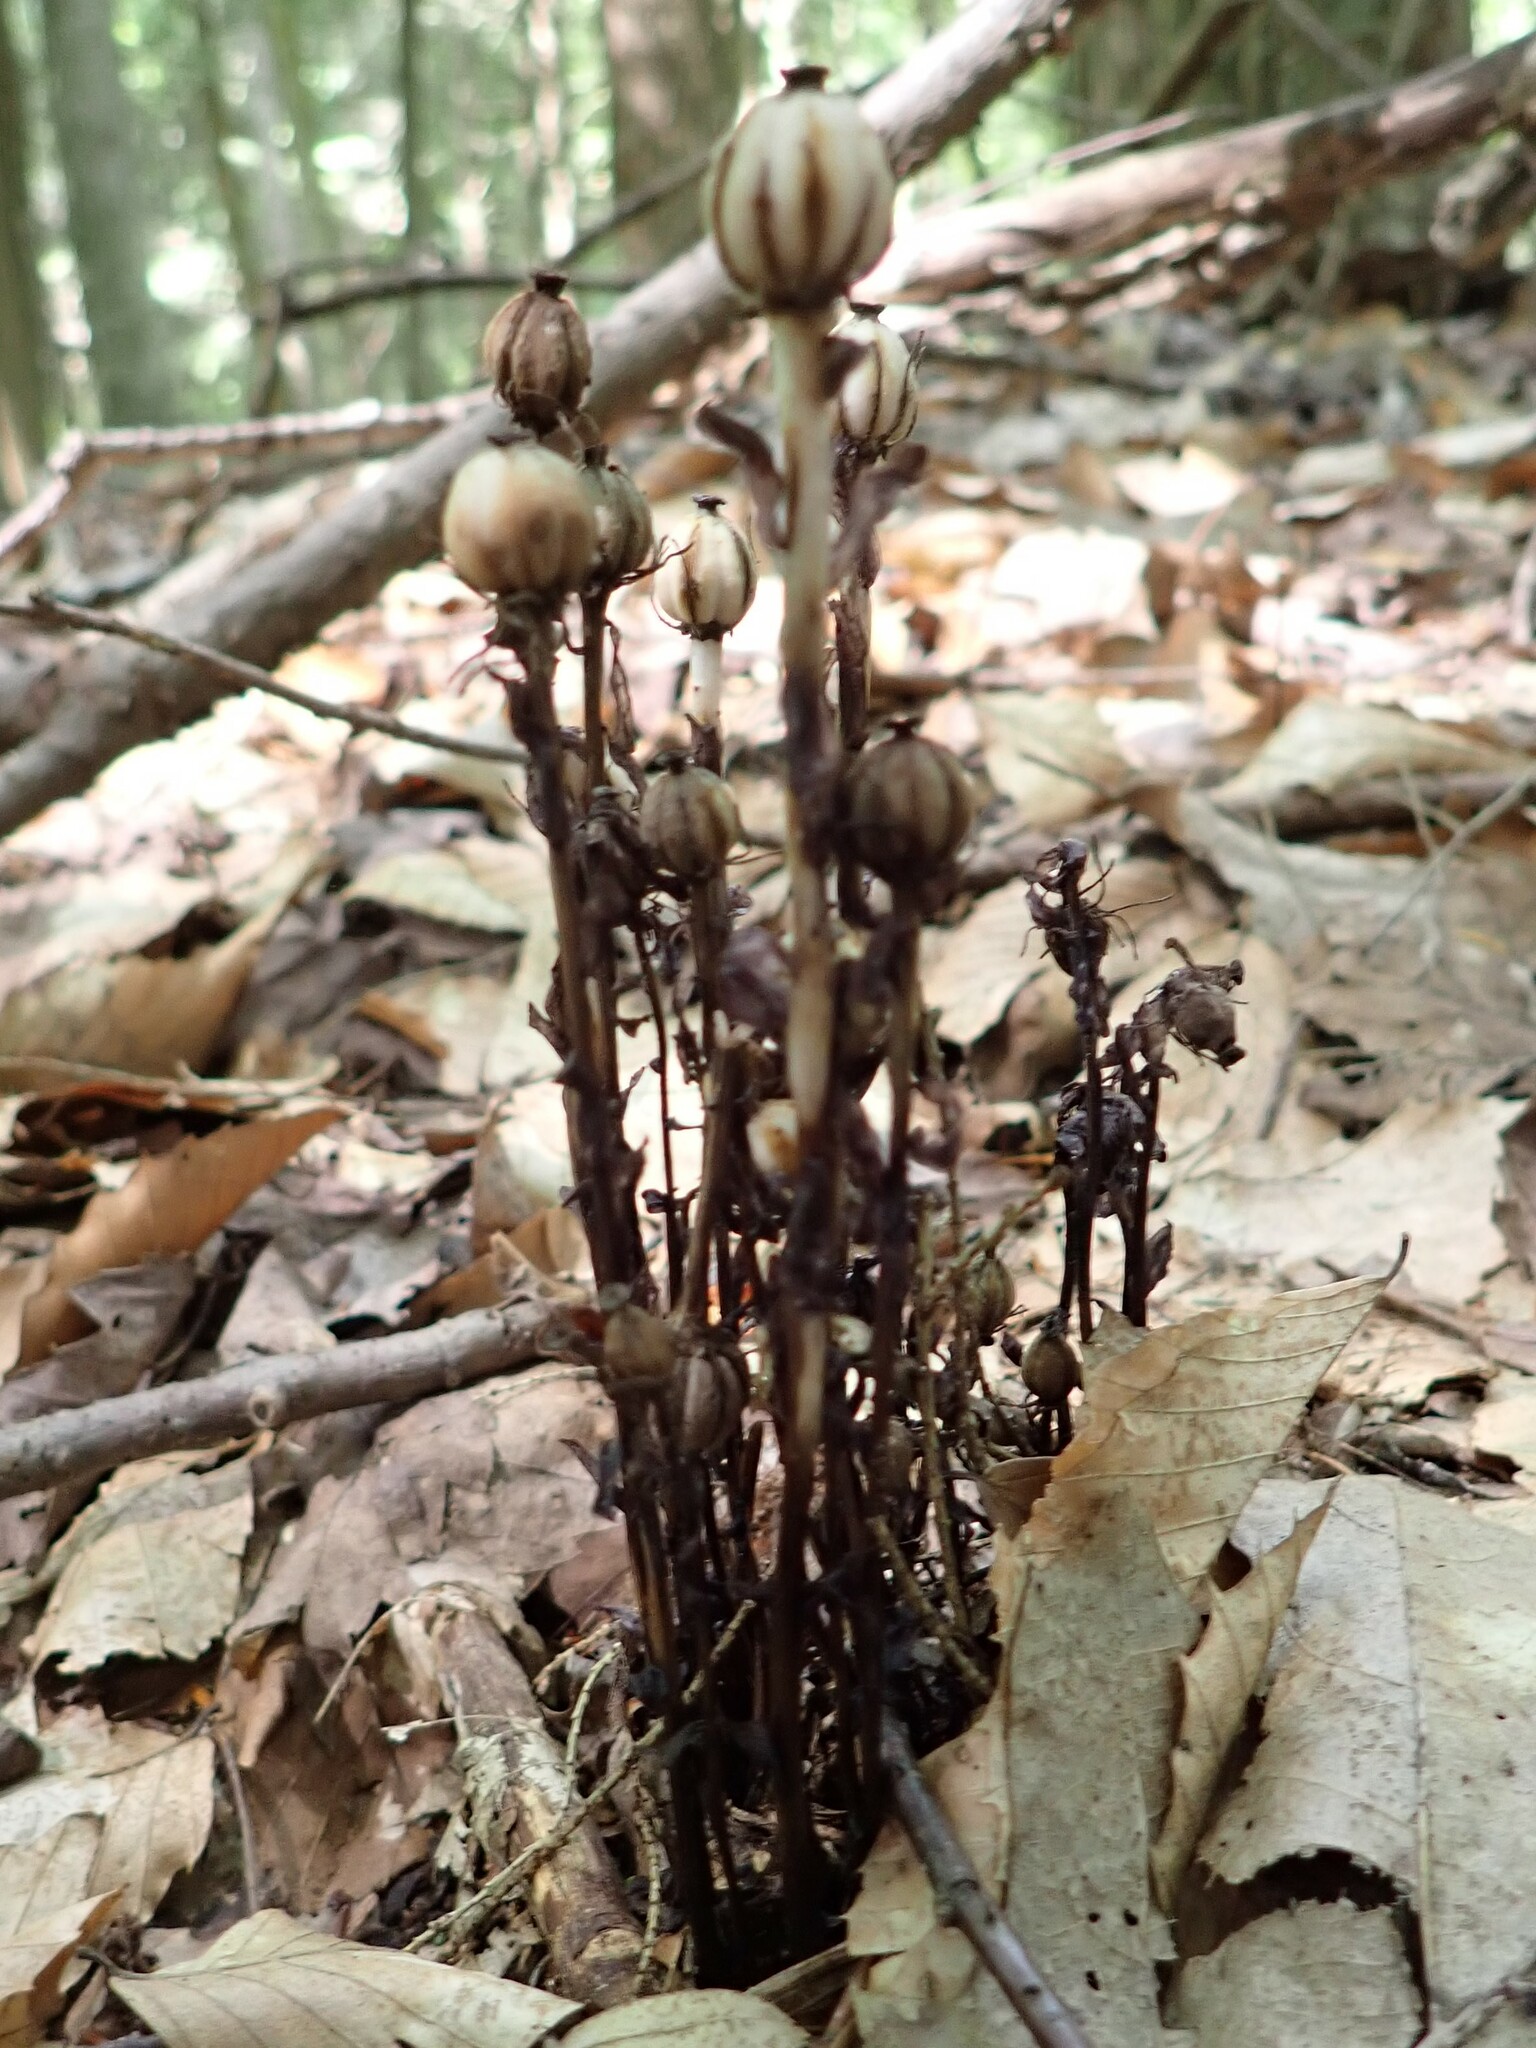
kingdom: Plantae
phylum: Tracheophyta
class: Magnoliopsida
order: Ericales
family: Ericaceae
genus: Monotropa
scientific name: Monotropa uniflora
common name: Convulsion root
